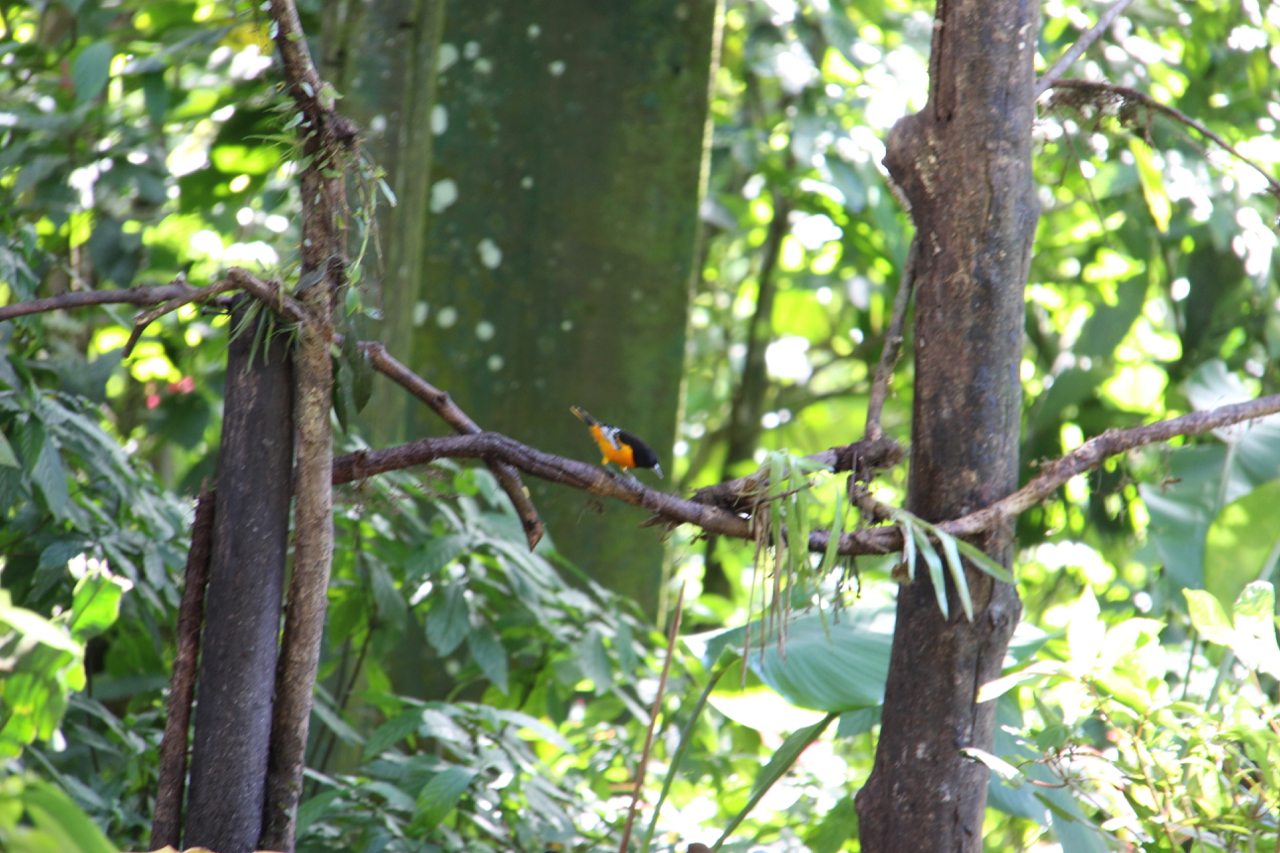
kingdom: Animalia
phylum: Chordata
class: Aves
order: Passeriformes
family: Icteridae
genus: Icterus
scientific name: Icterus galbula
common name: Baltimore oriole
